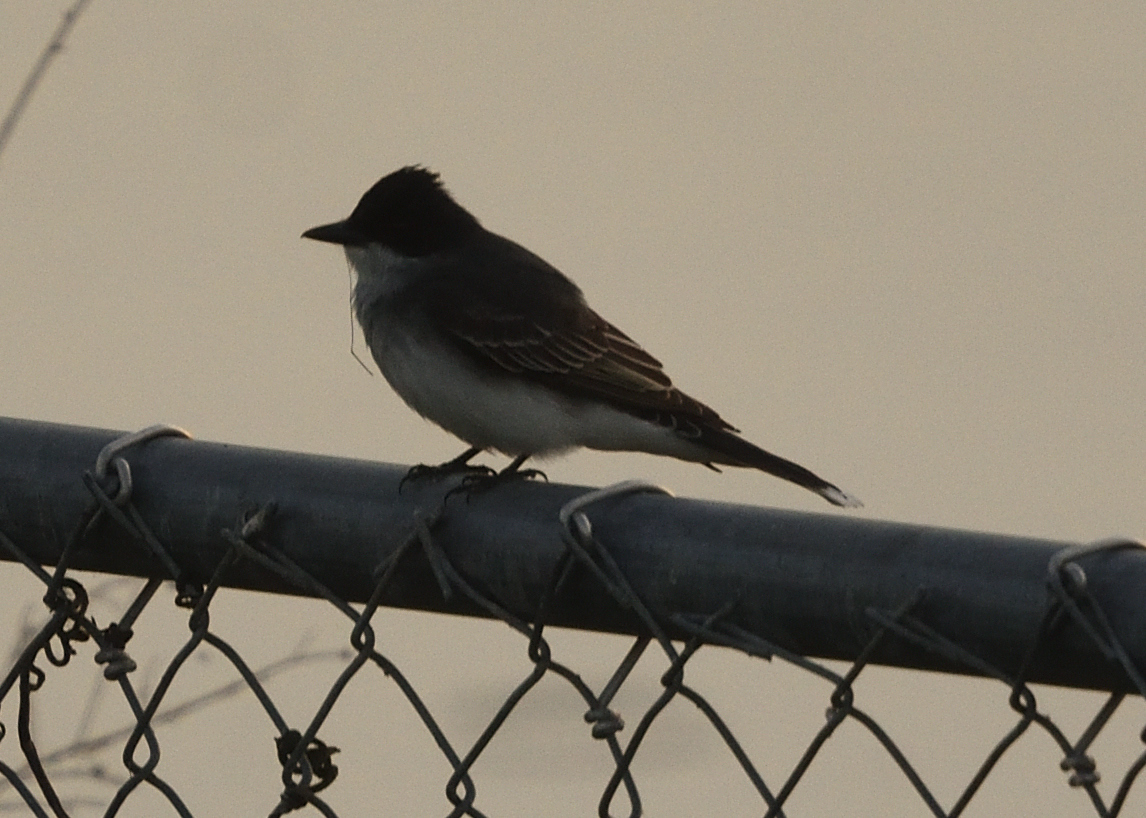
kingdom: Animalia
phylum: Chordata
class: Aves
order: Passeriformes
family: Tyrannidae
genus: Tyrannus
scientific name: Tyrannus tyrannus
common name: Eastern kingbird
